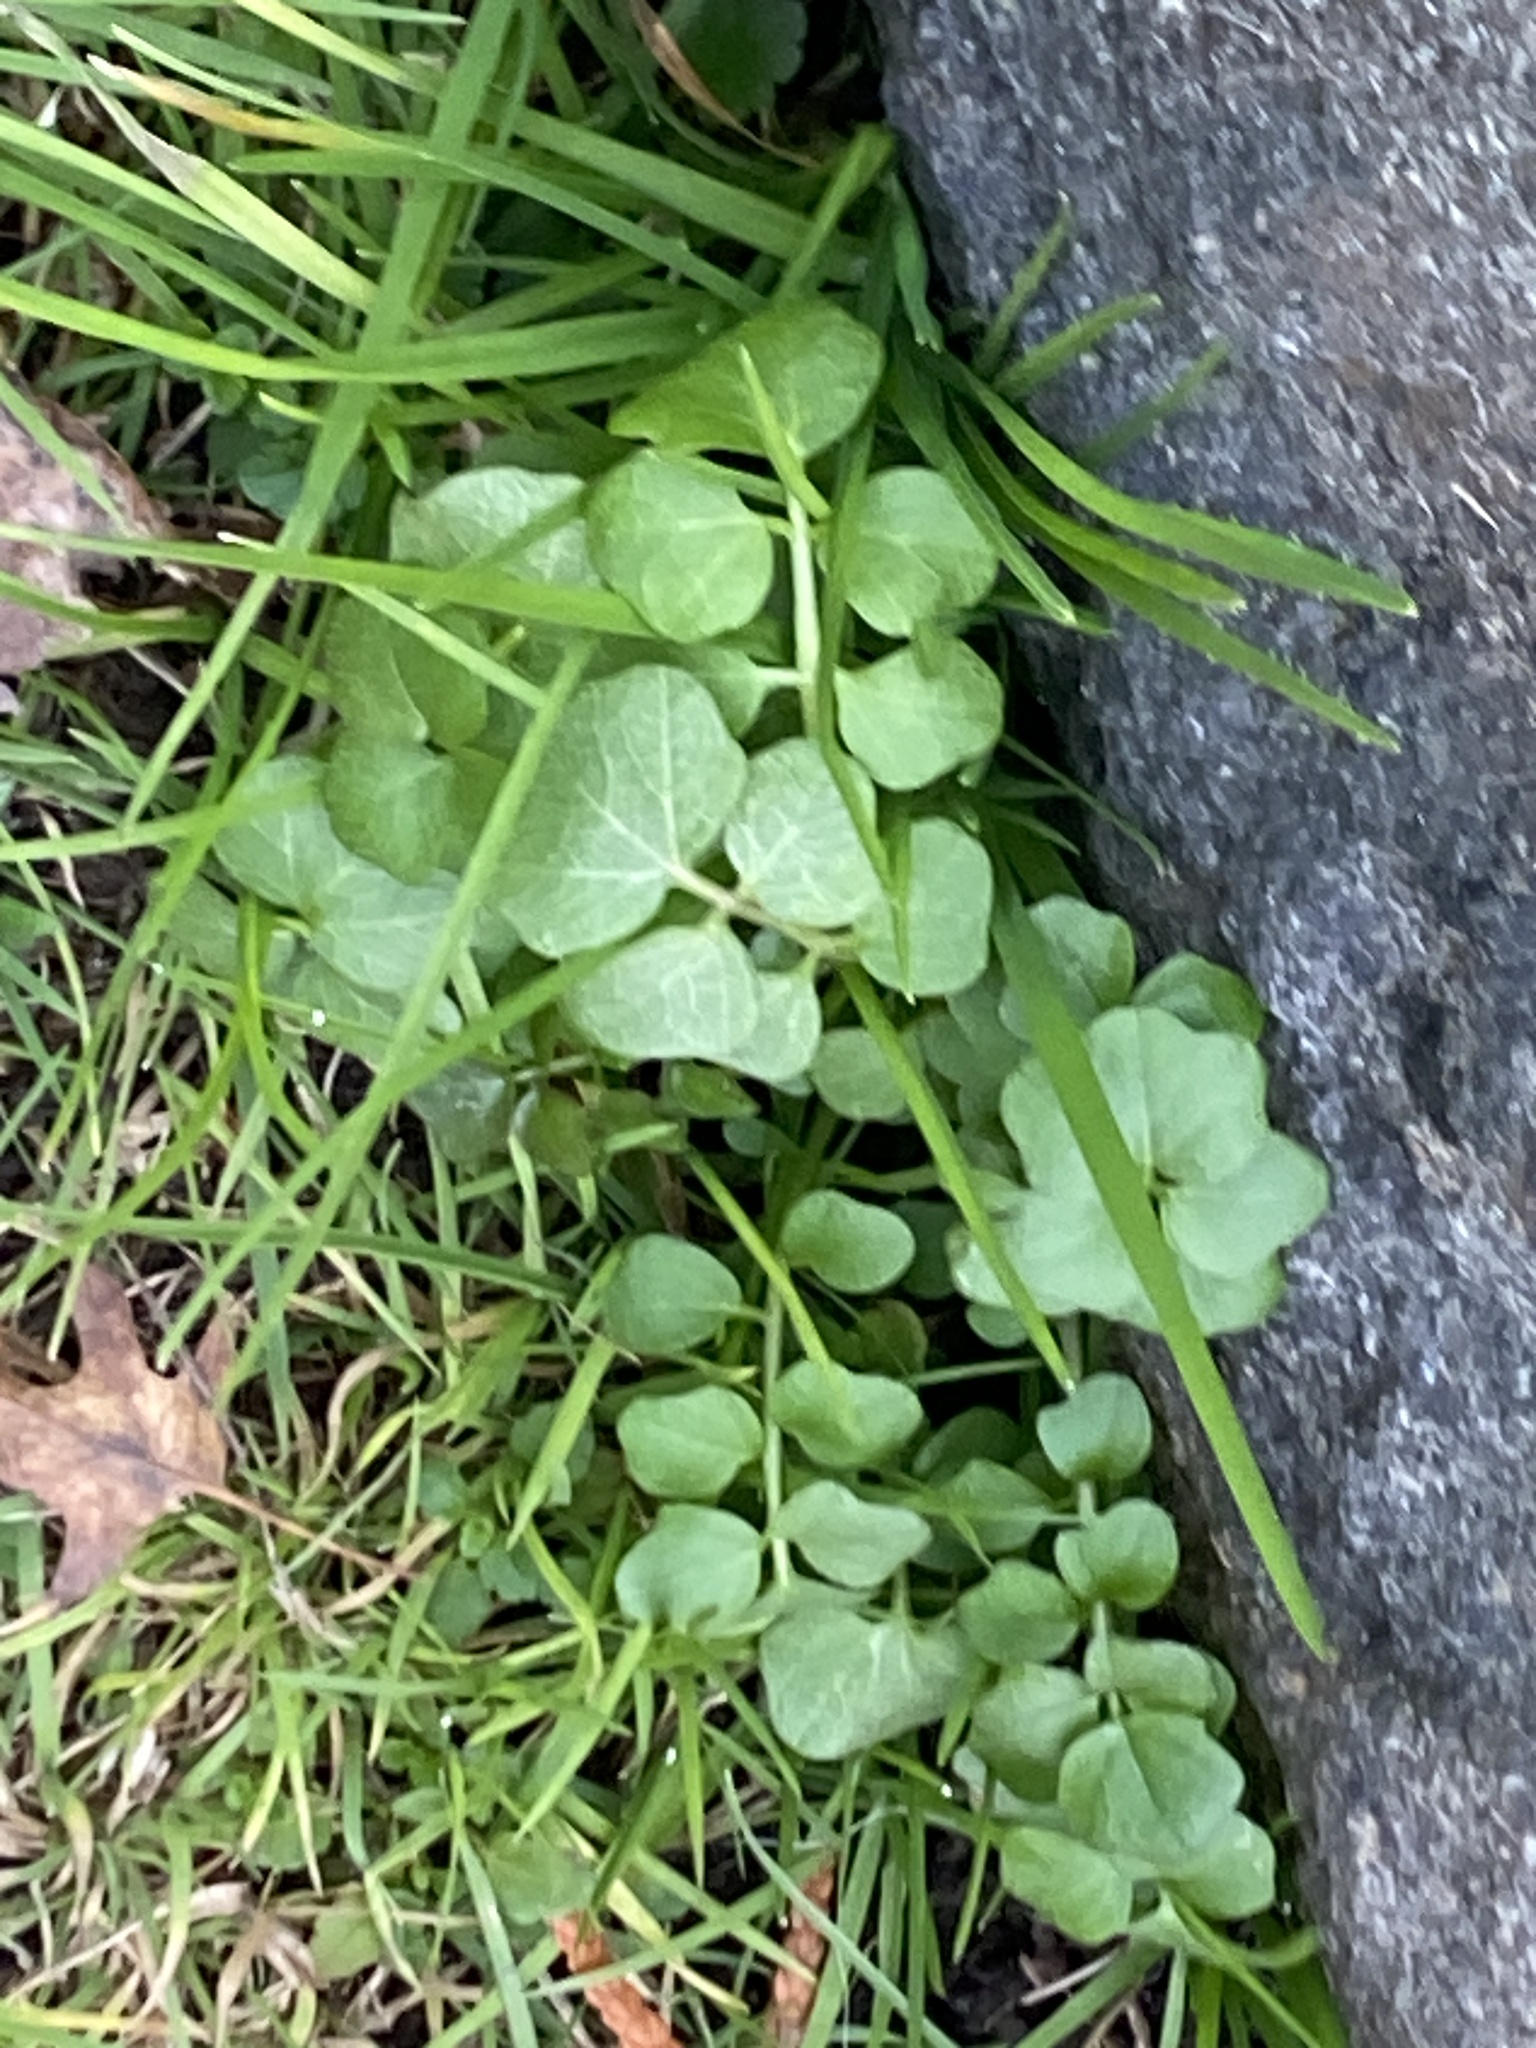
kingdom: Plantae
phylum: Tracheophyta
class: Magnoliopsida
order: Brassicales
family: Brassicaceae
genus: Cardamine
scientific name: Cardamine hirsuta
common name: Hairy bittercress
